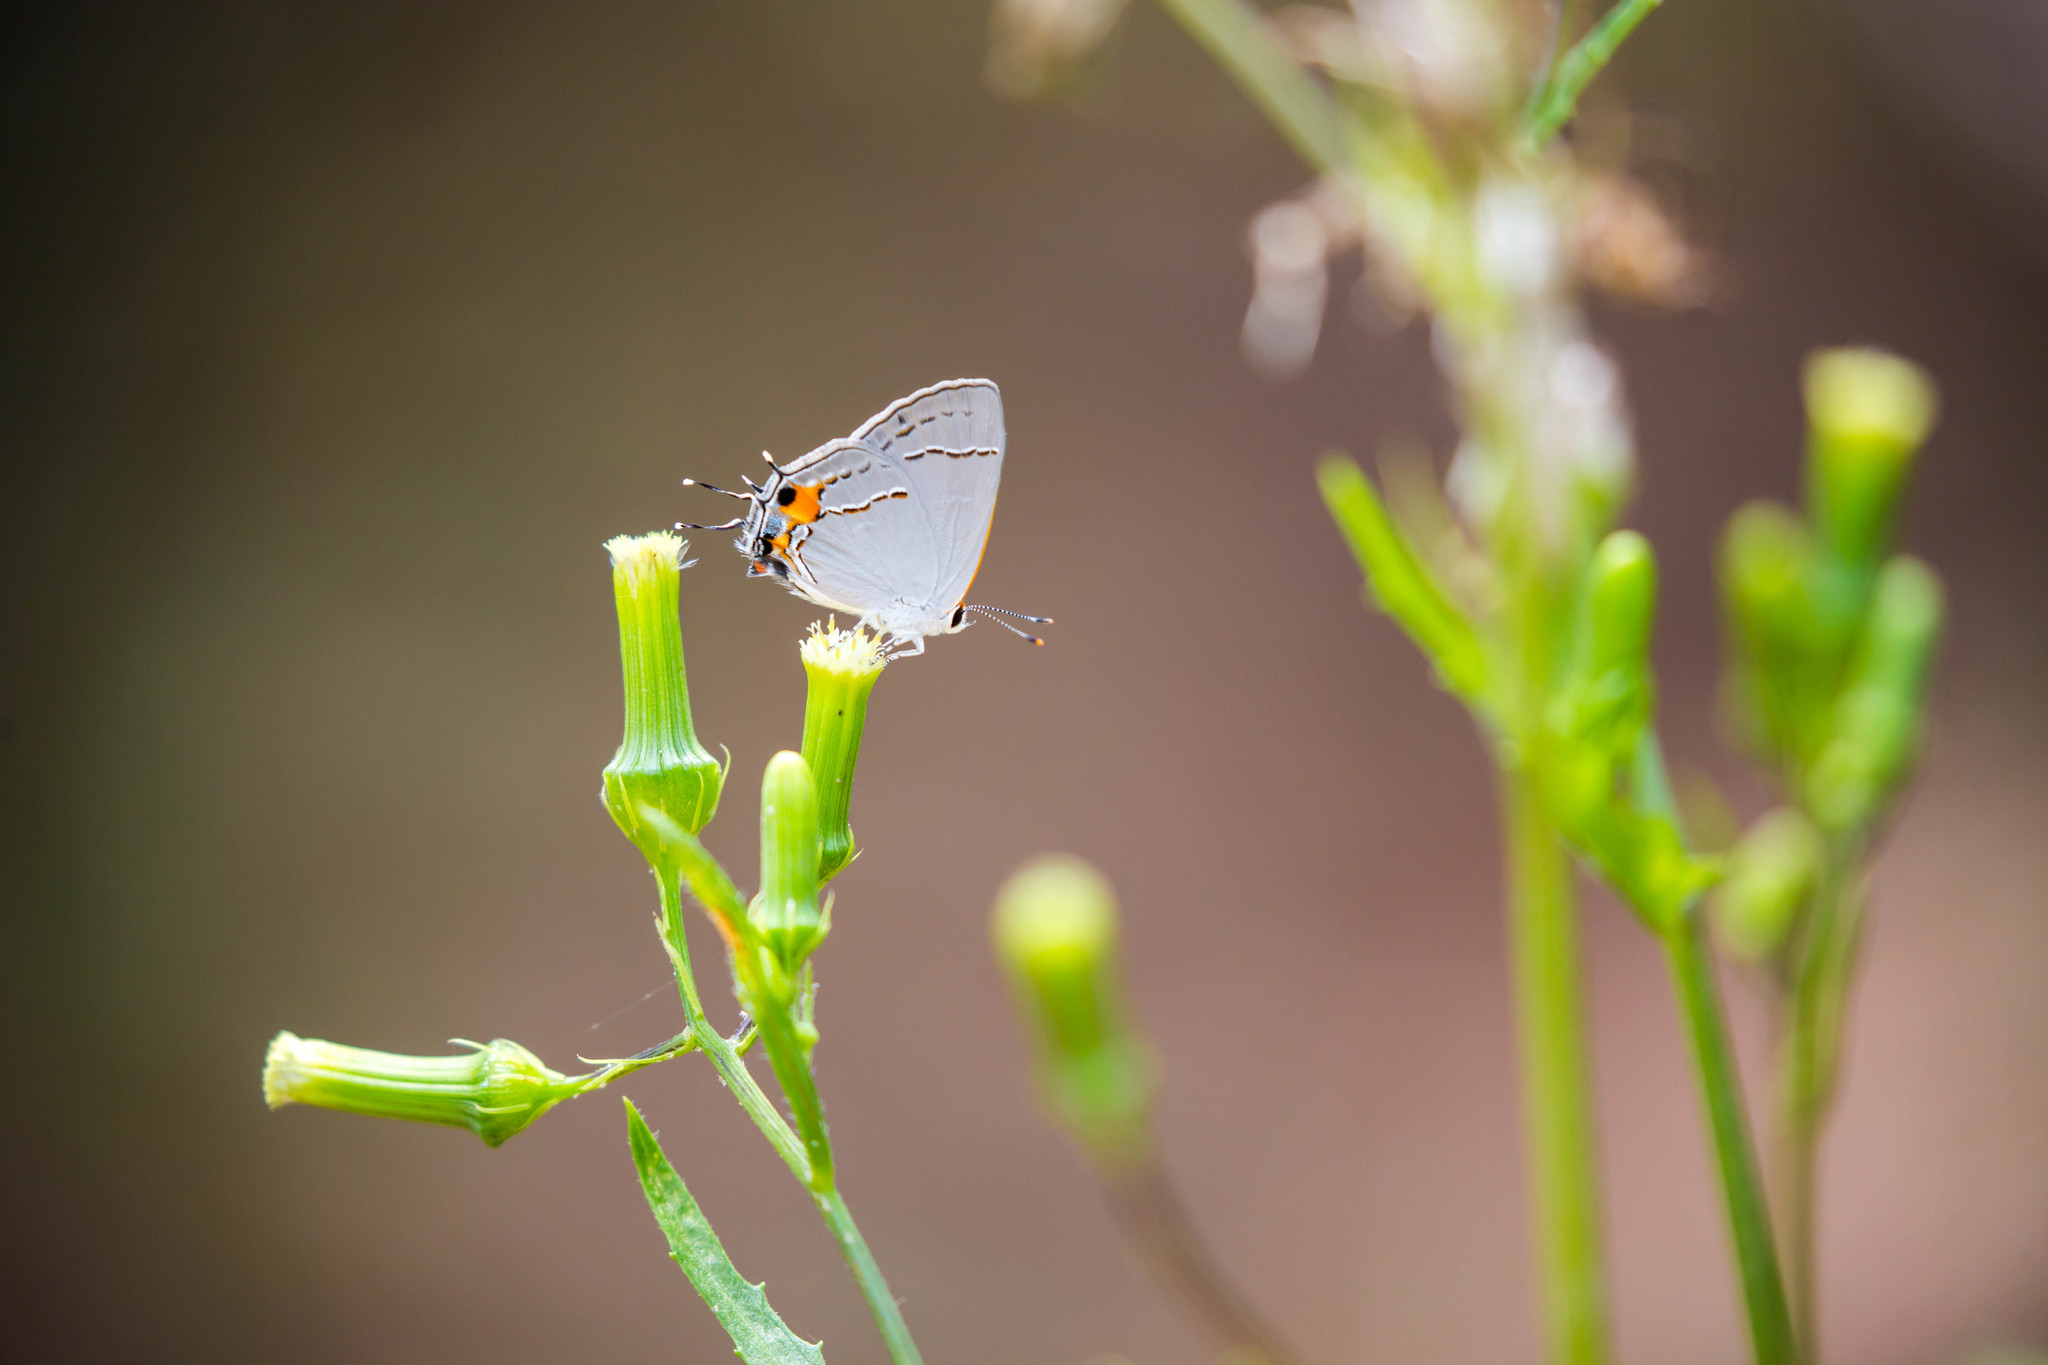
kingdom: Animalia
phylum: Arthropoda
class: Insecta
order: Lepidoptera
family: Lycaenidae
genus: Strymon
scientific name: Strymon melinus
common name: Gray hairstreak
